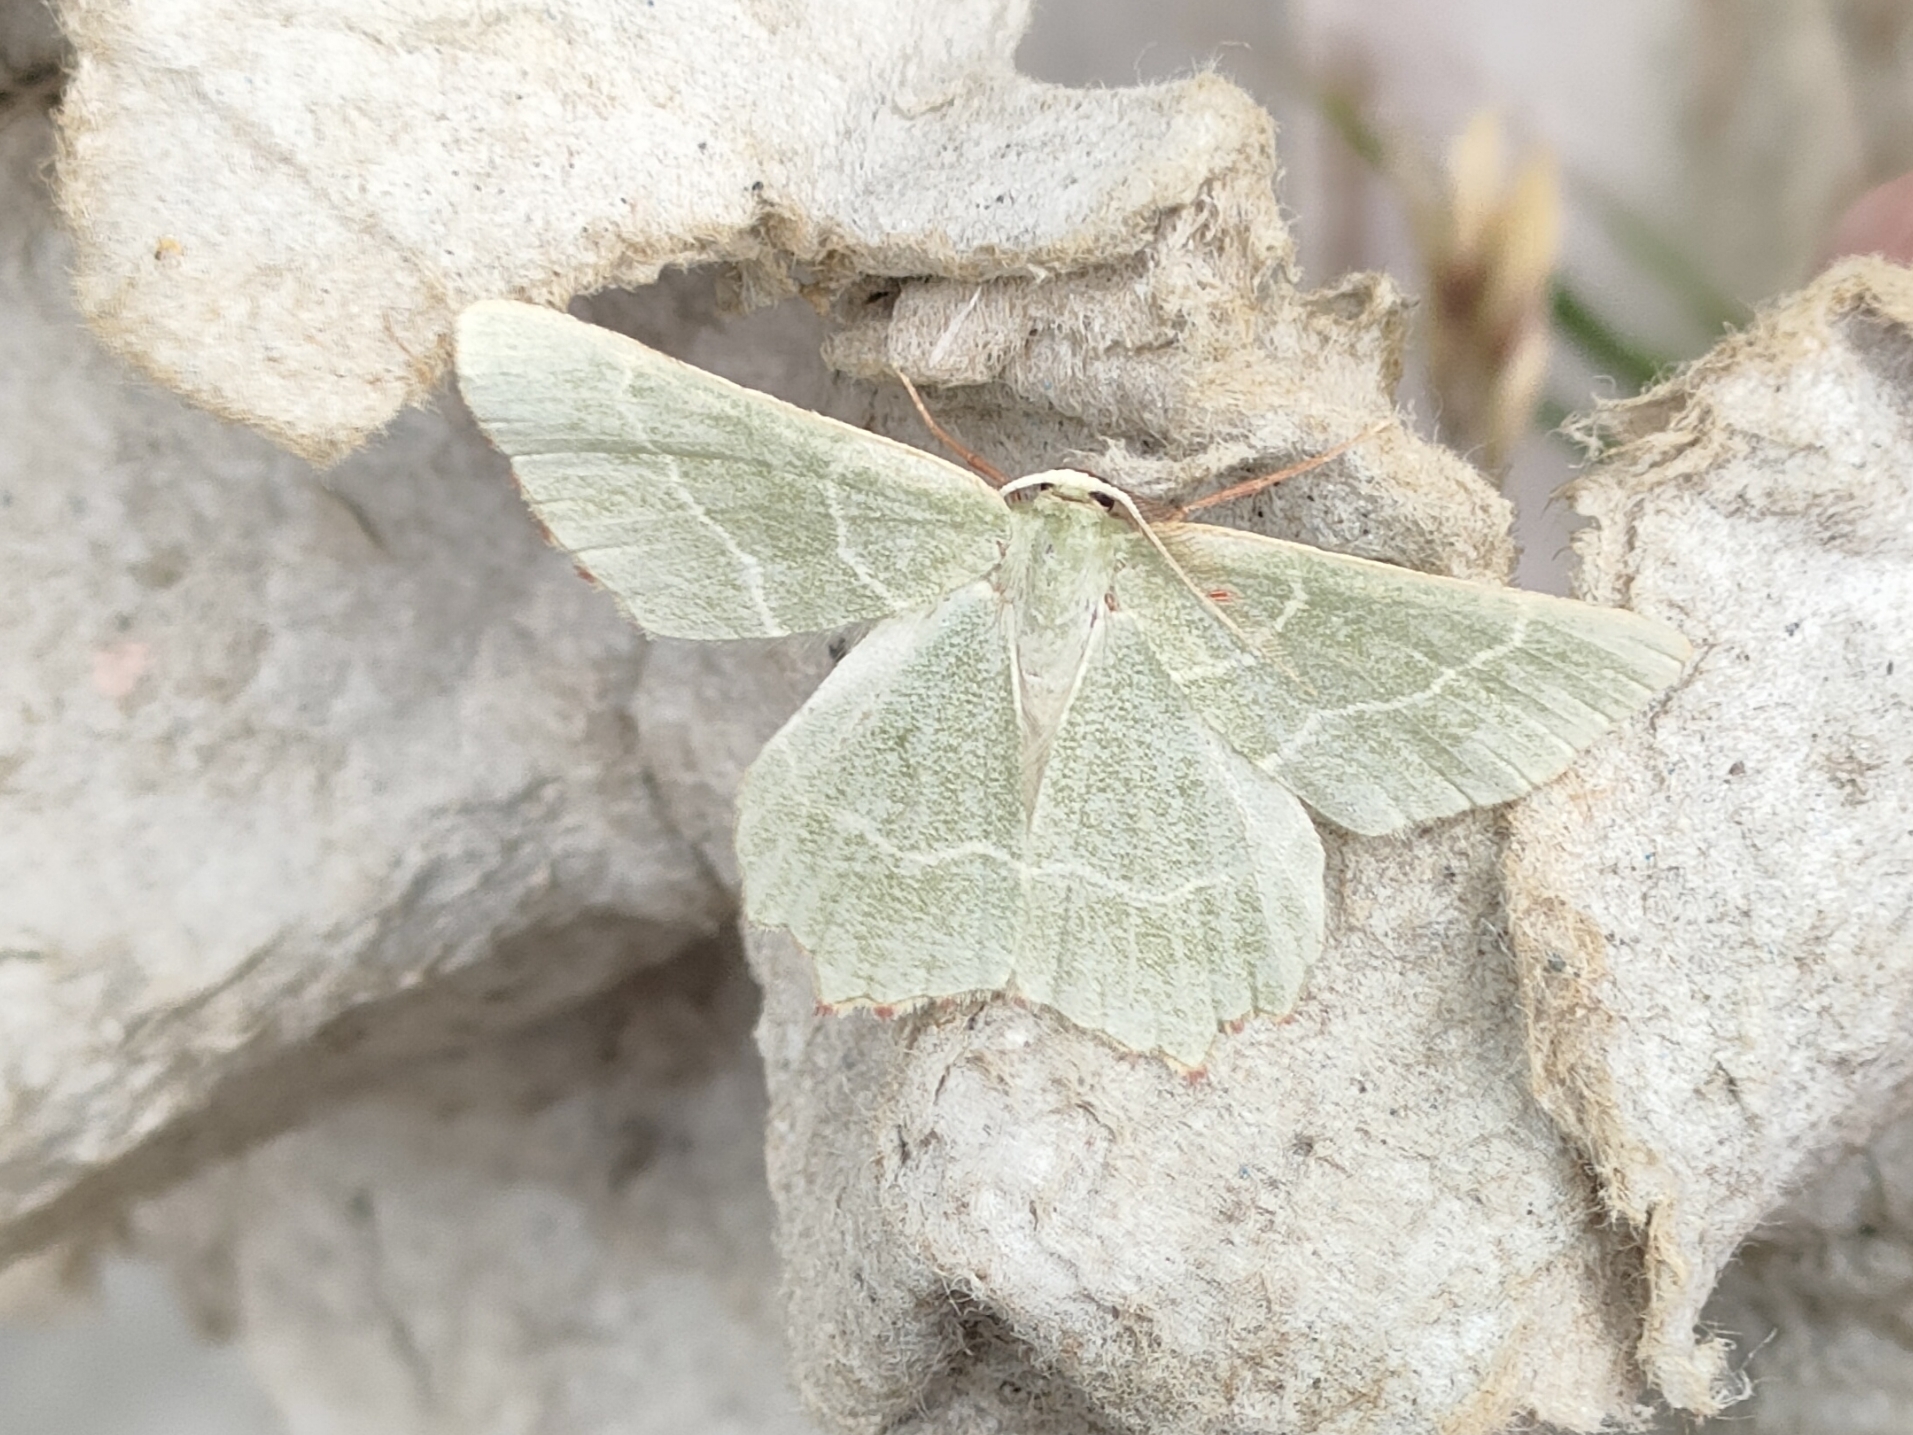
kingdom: Animalia
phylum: Arthropoda
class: Insecta
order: Lepidoptera
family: Geometridae
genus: Thalera
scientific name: Thalera fimbrialis
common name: Sussex emerald
